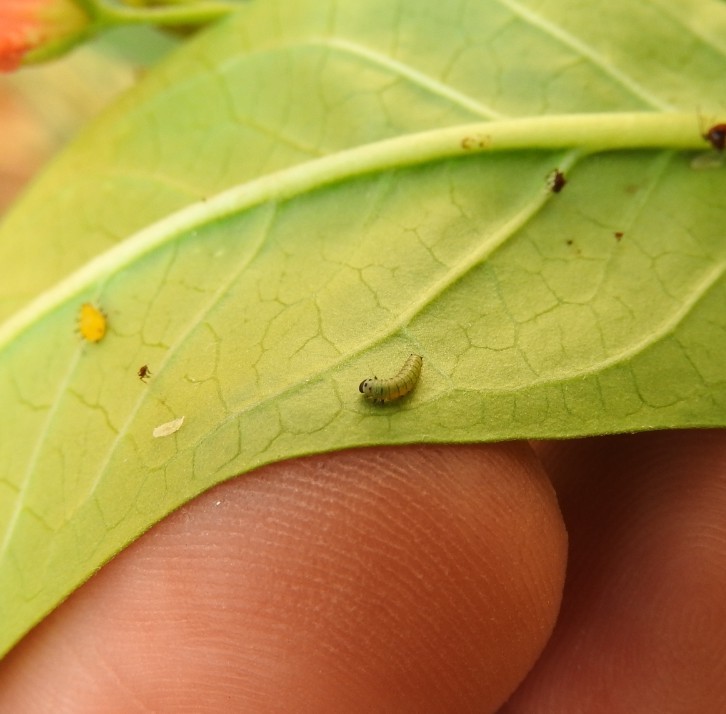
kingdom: Animalia
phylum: Arthropoda
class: Insecta
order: Lepidoptera
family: Nymphalidae
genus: Danaus
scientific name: Danaus plexippus
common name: Monarch
